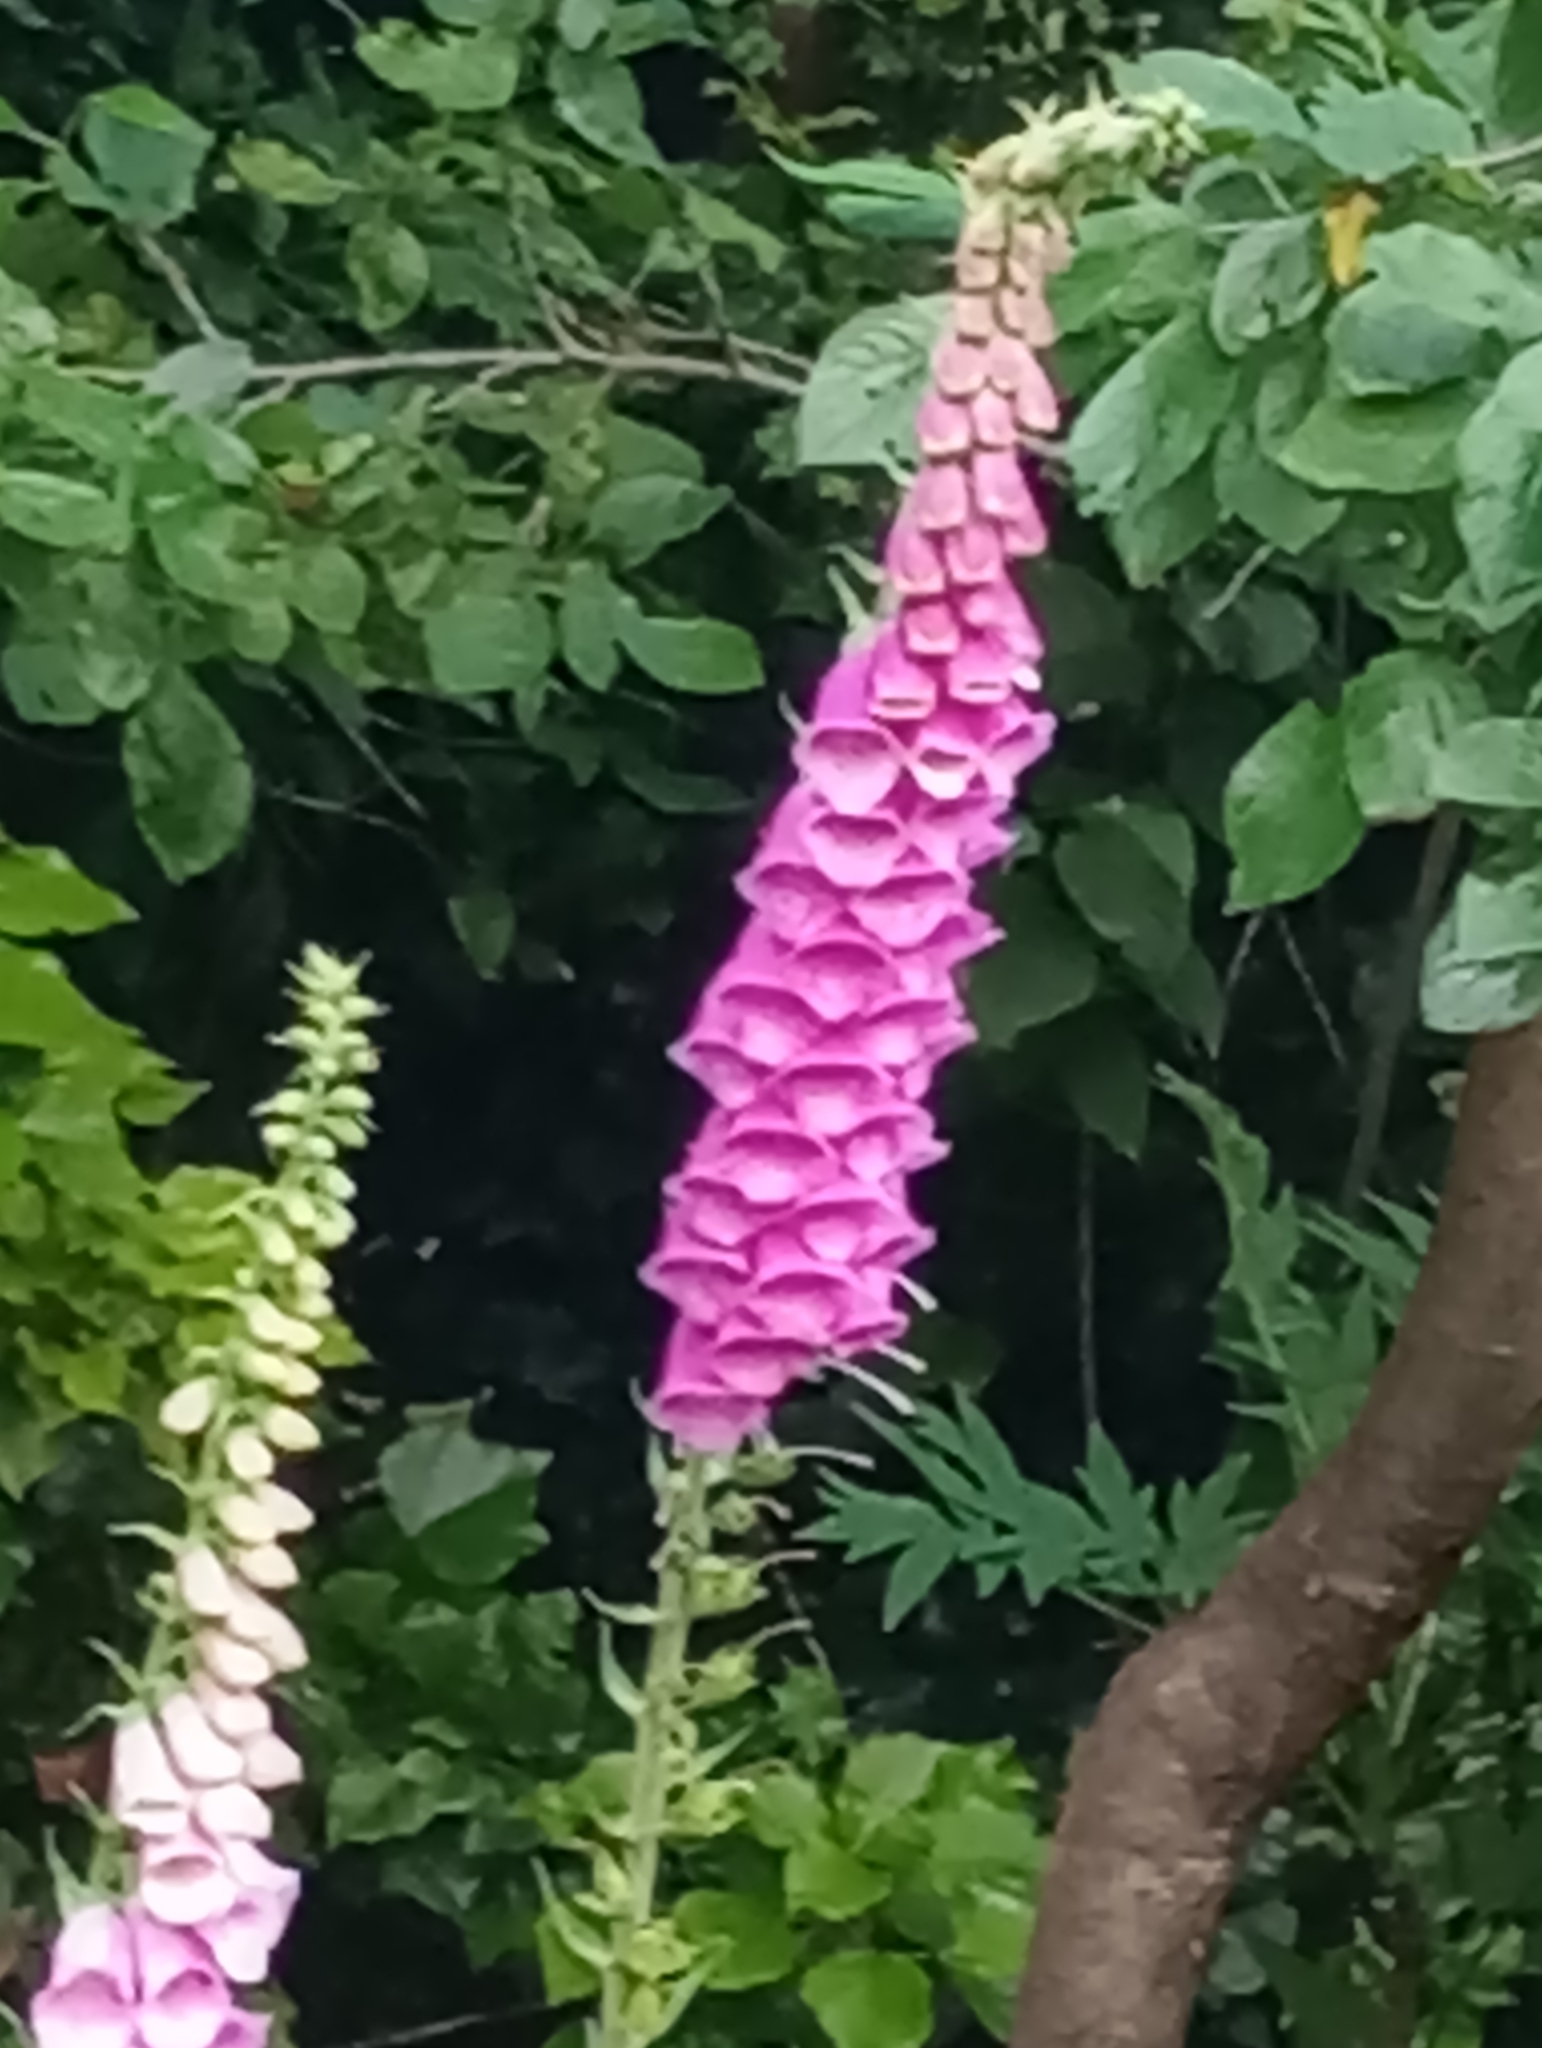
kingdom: Plantae
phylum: Tracheophyta
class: Magnoliopsida
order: Lamiales
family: Plantaginaceae
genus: Digitalis
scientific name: Digitalis purpurea
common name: Foxglove
